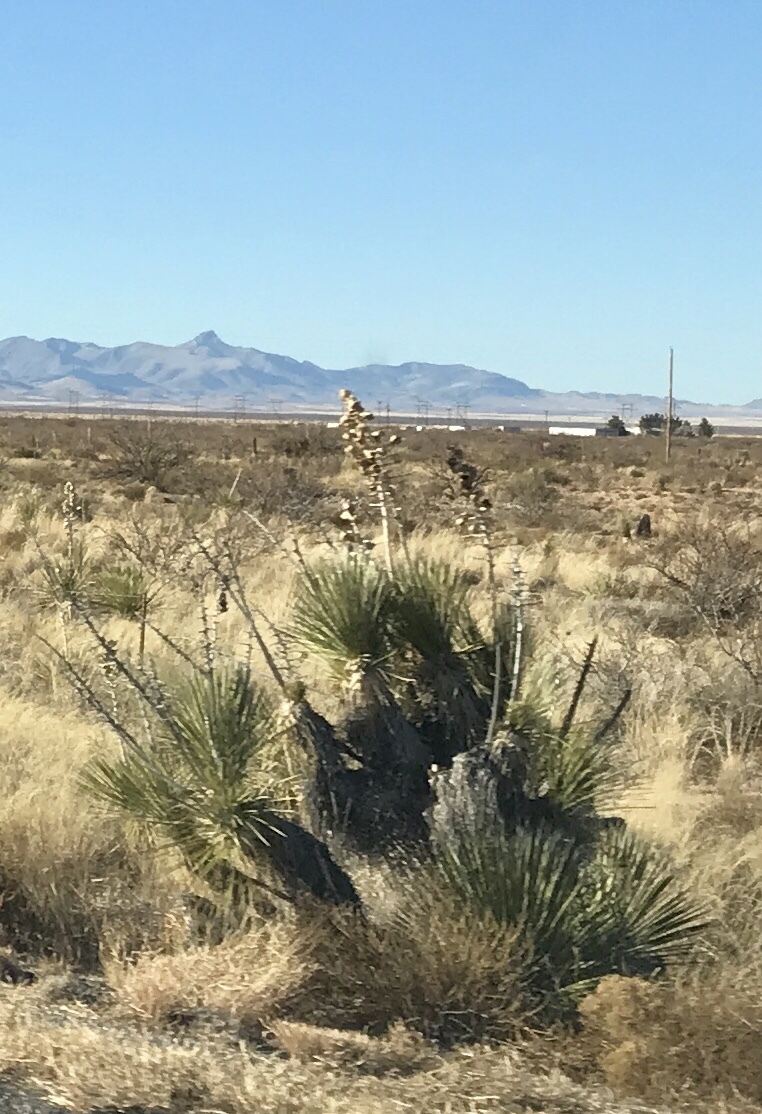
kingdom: Plantae
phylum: Tracheophyta
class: Liliopsida
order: Asparagales
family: Asparagaceae
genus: Yucca
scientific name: Yucca elata
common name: Palmella
